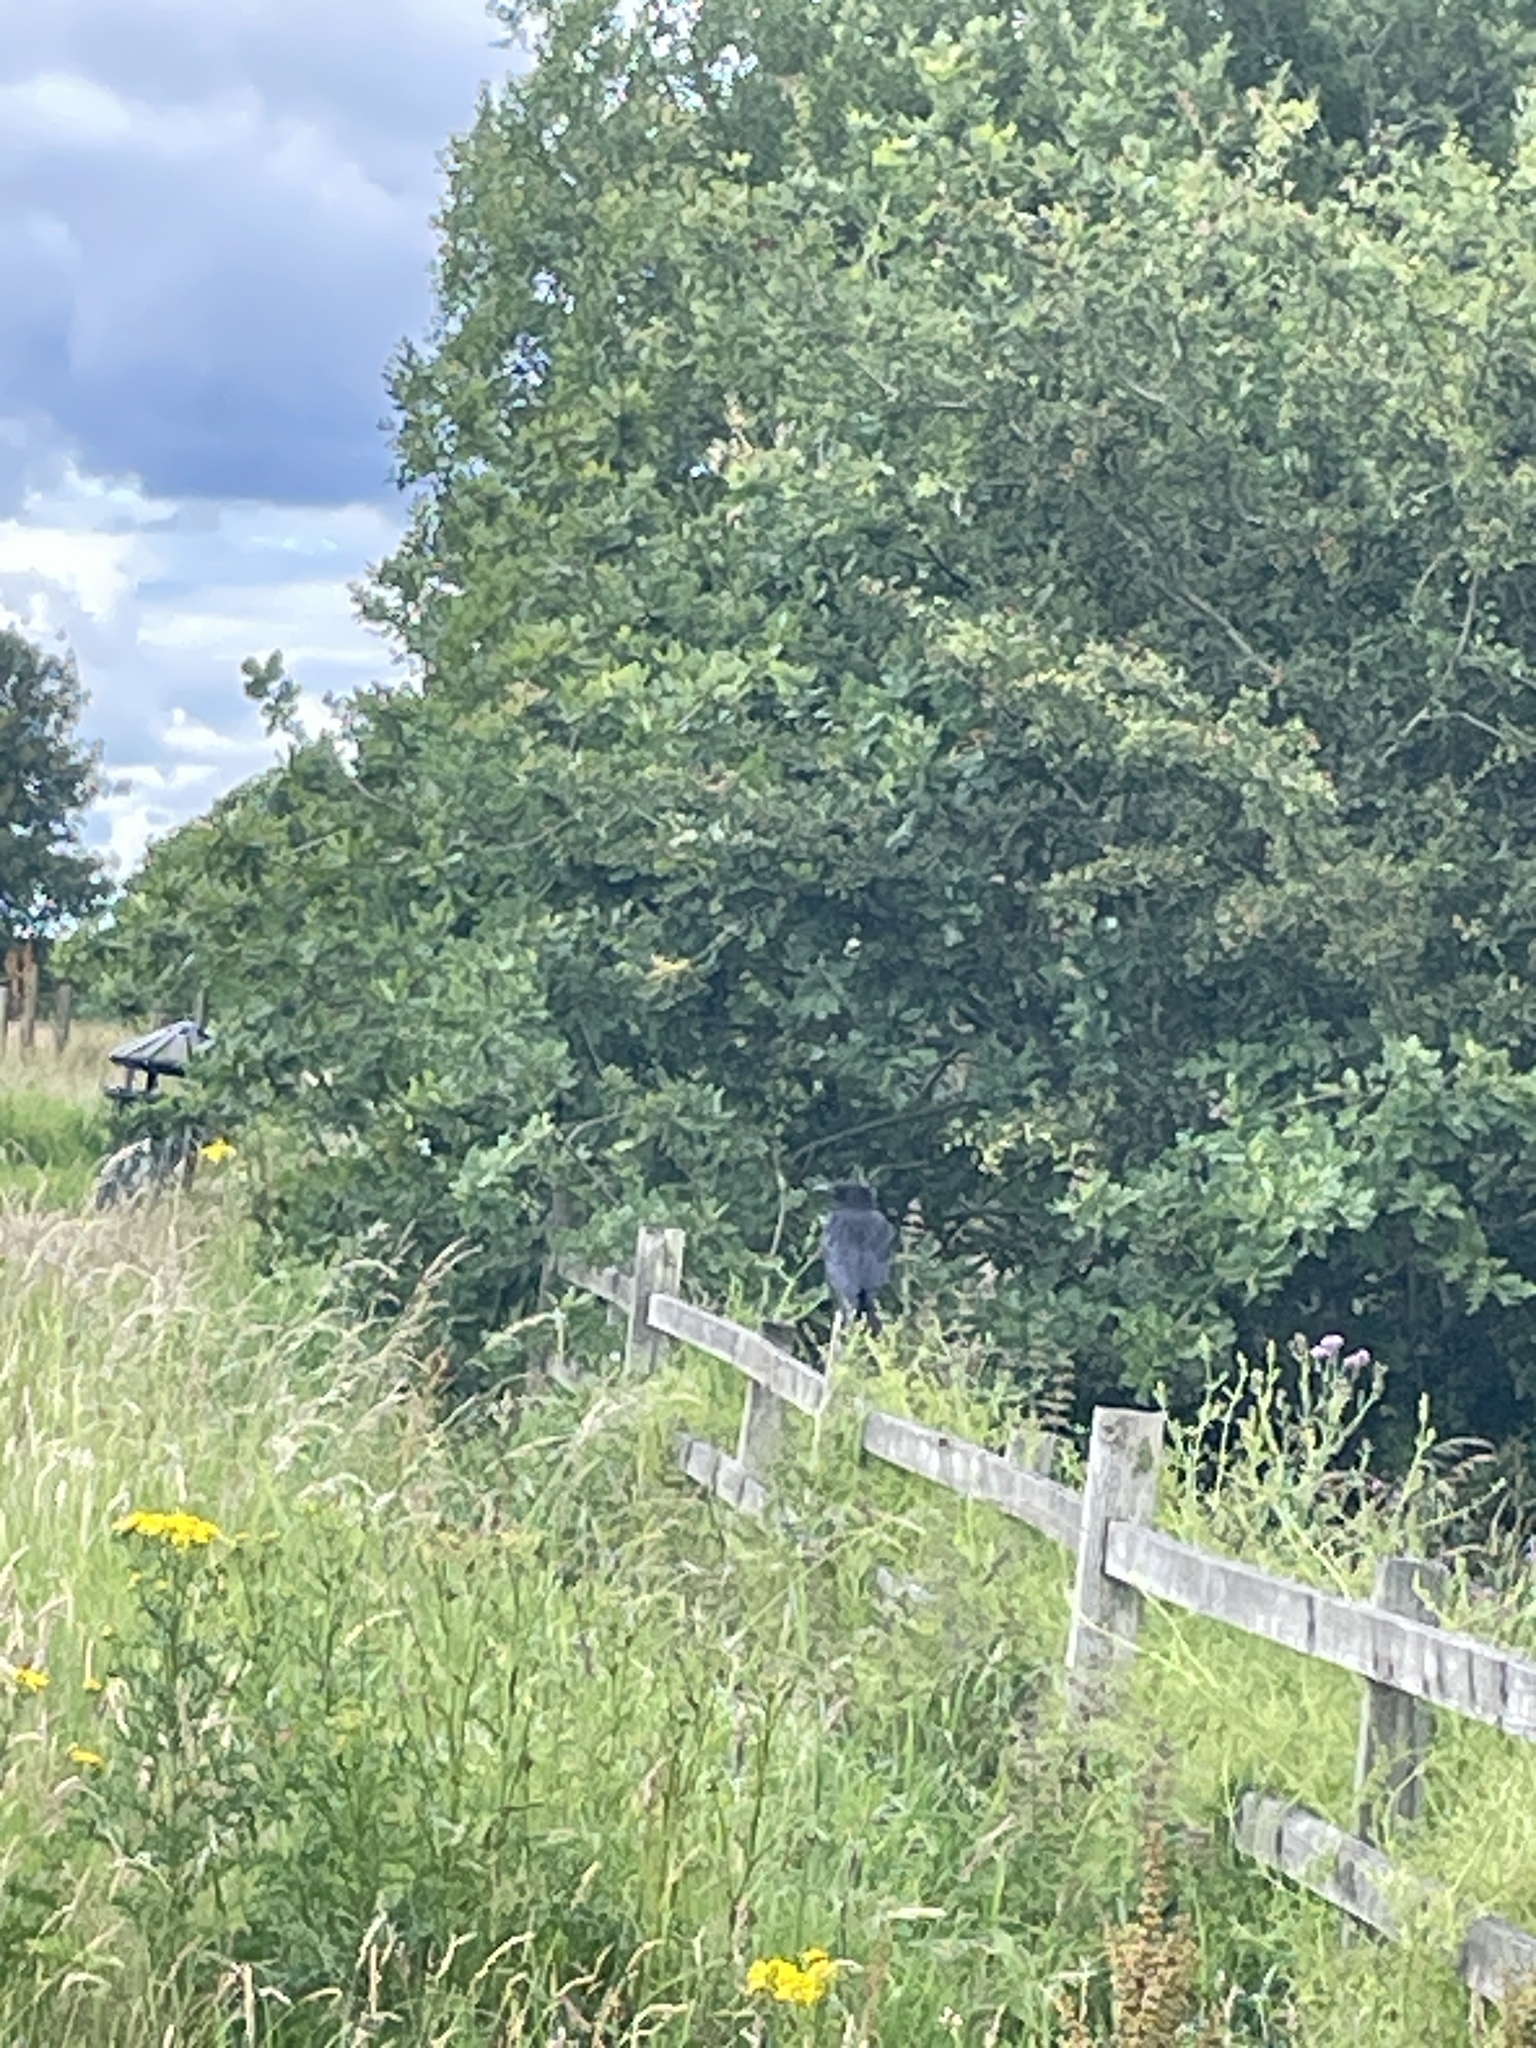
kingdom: Animalia
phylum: Chordata
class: Aves
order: Passeriformes
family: Corvidae
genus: Corvus
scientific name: Corvus corone
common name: Carrion crow
